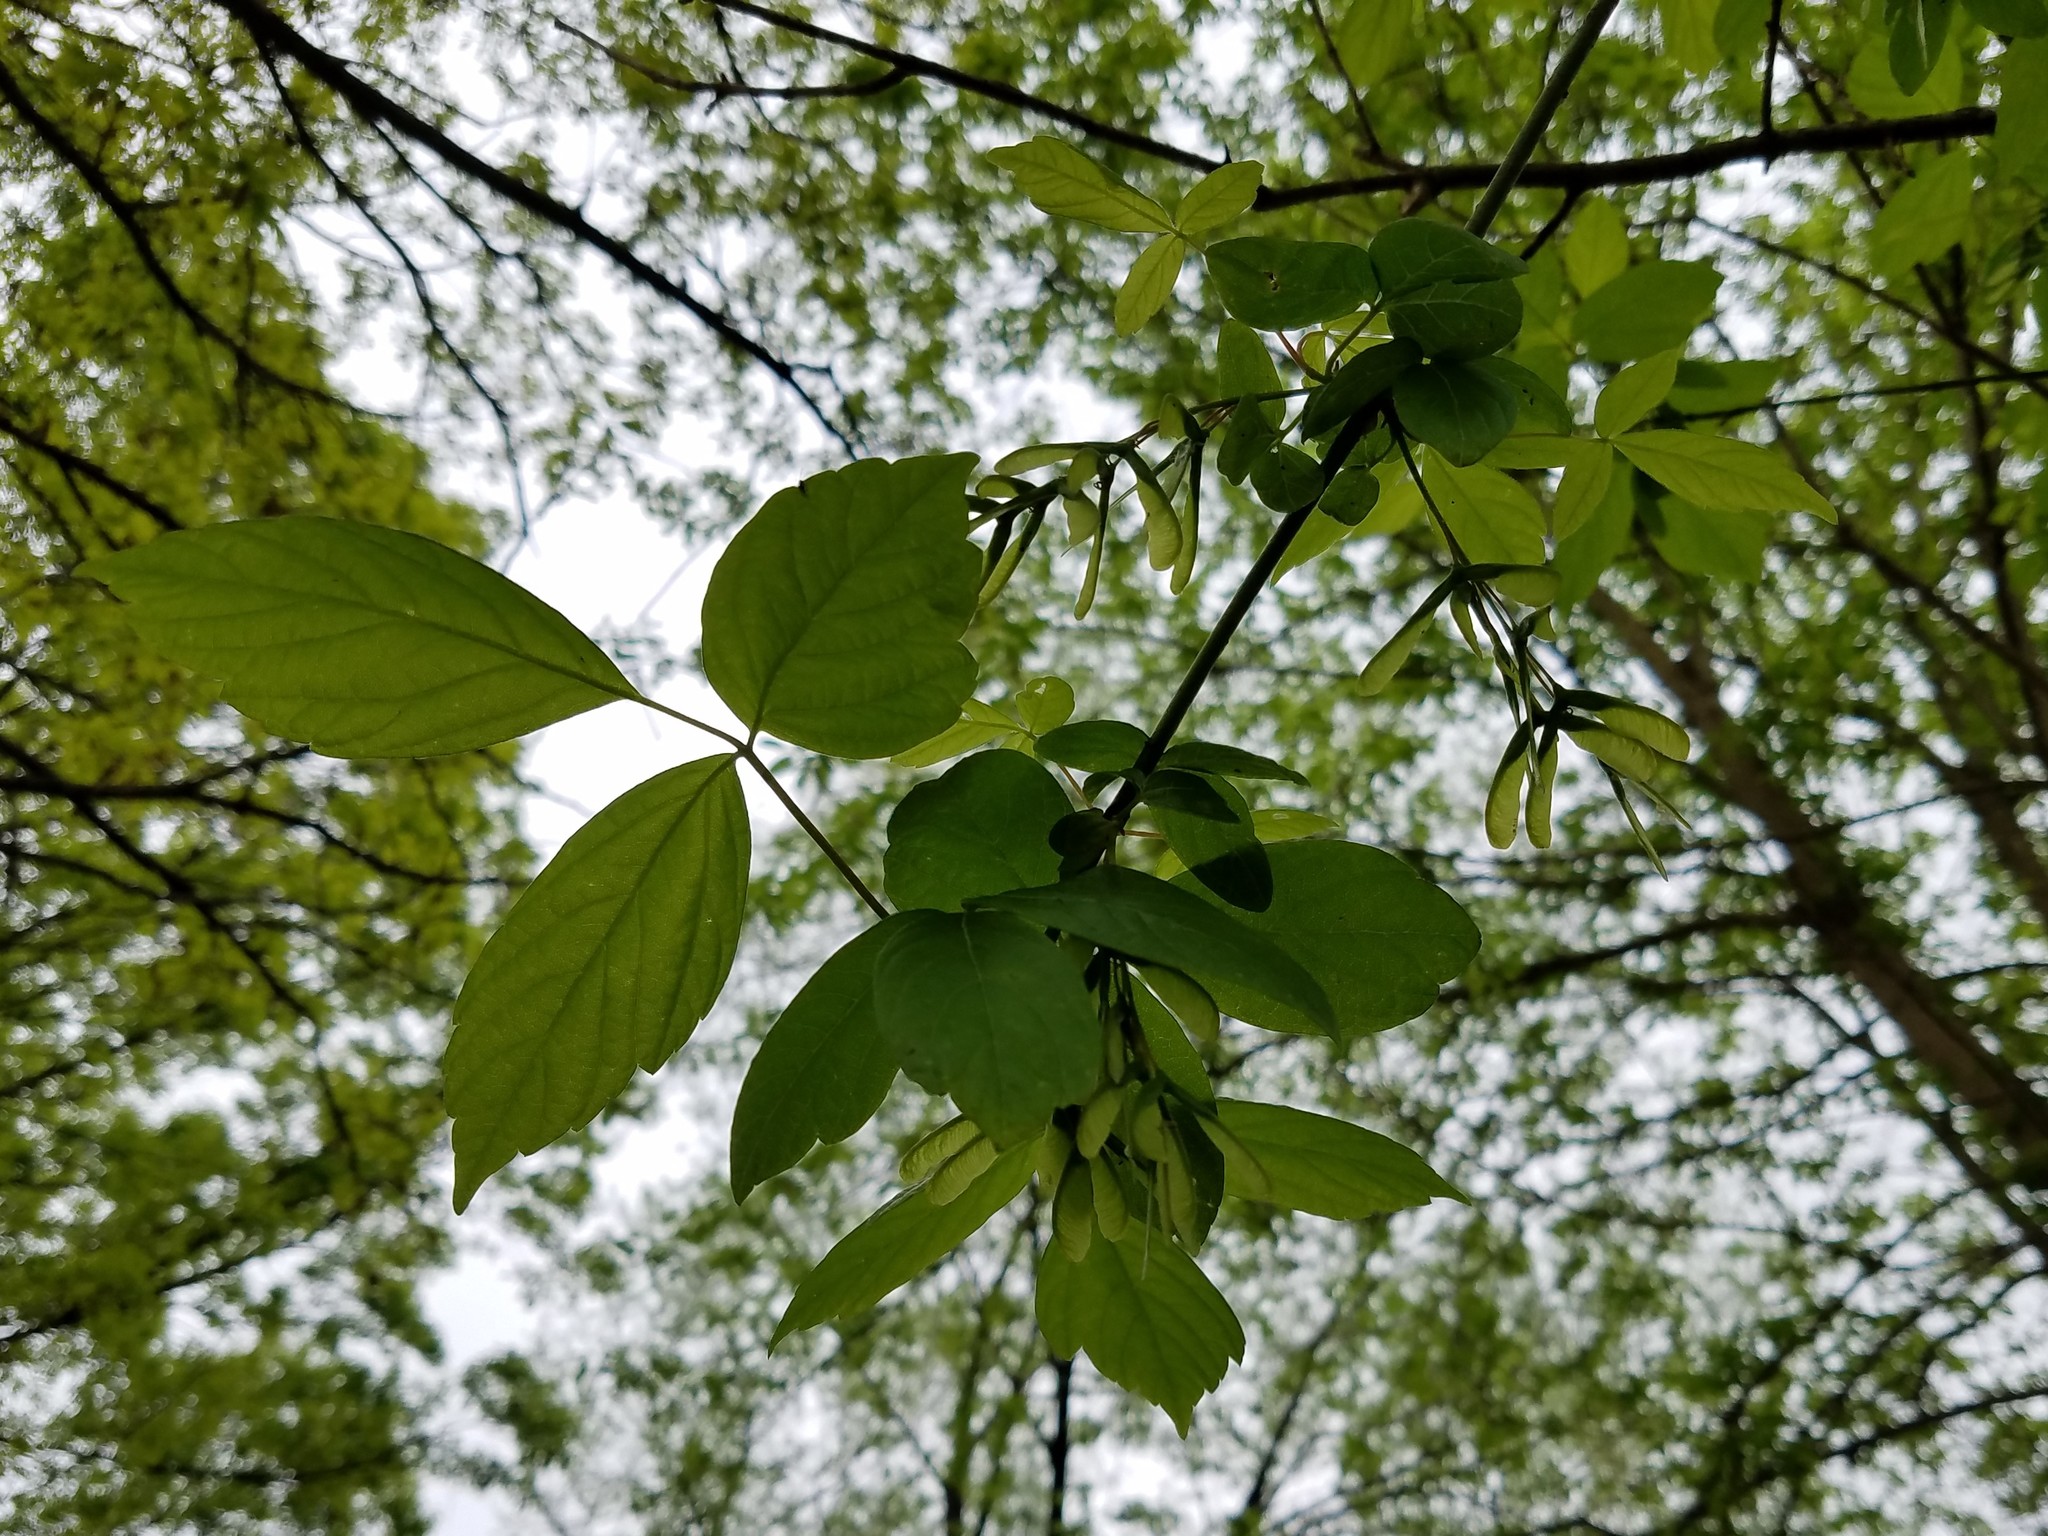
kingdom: Plantae
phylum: Tracheophyta
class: Magnoliopsida
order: Sapindales
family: Sapindaceae
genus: Acer
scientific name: Acer negundo
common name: Ashleaf maple
